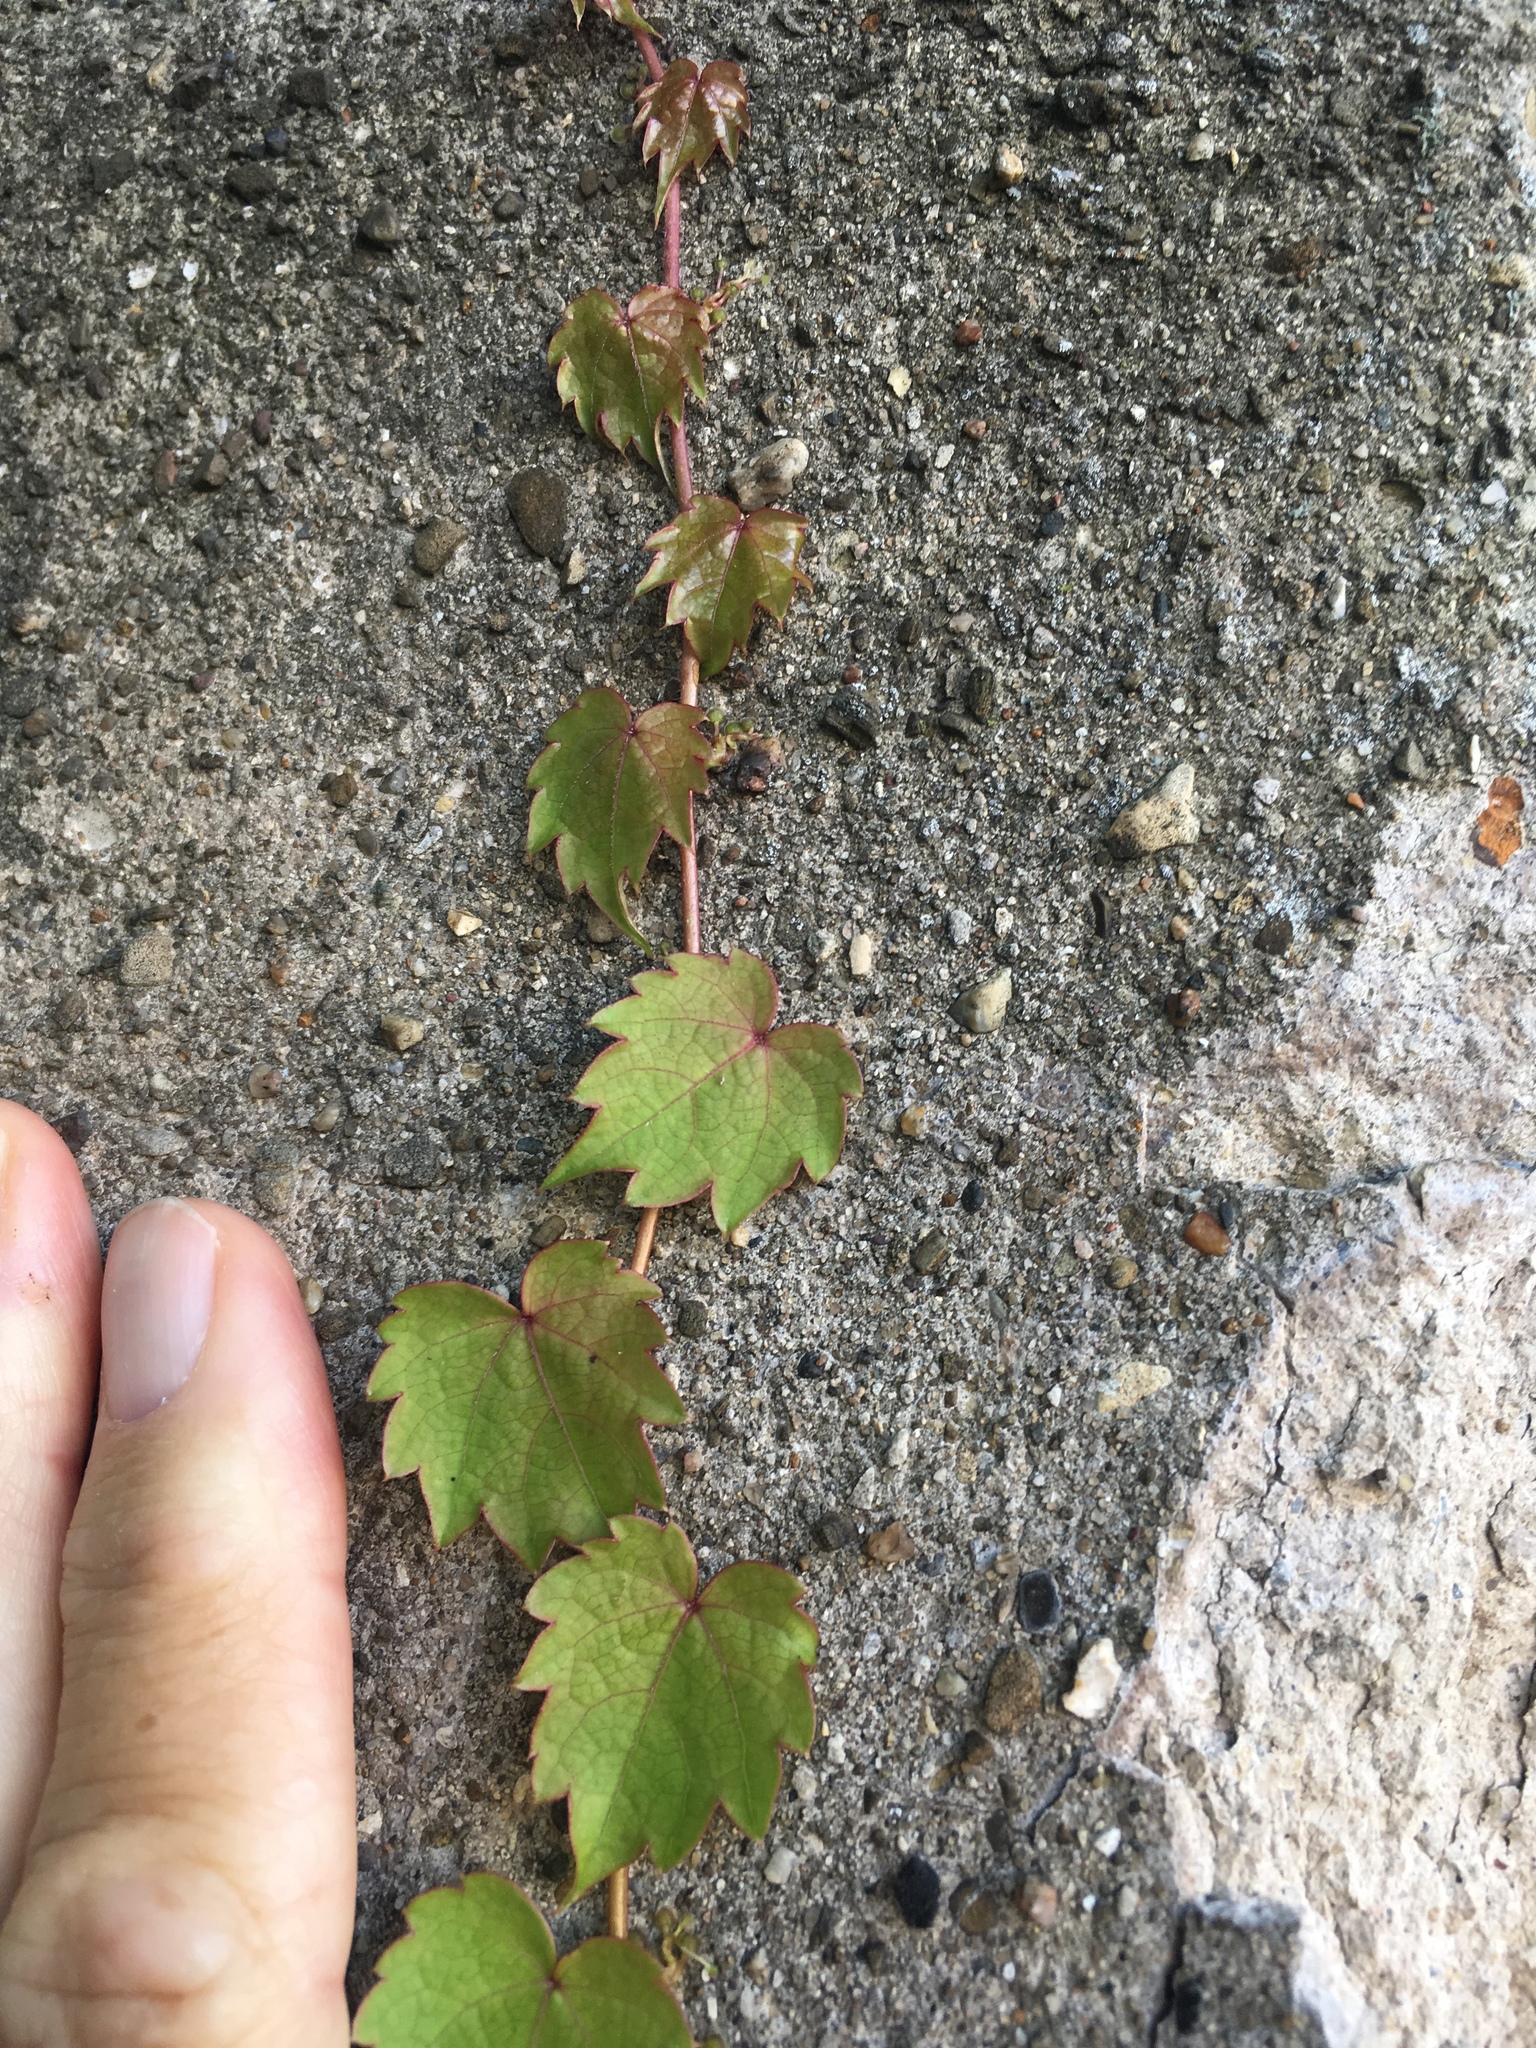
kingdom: Plantae
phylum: Tracheophyta
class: Magnoliopsida
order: Vitales
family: Vitaceae
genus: Parthenocissus
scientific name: Parthenocissus tricuspidata
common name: Boston ivy
